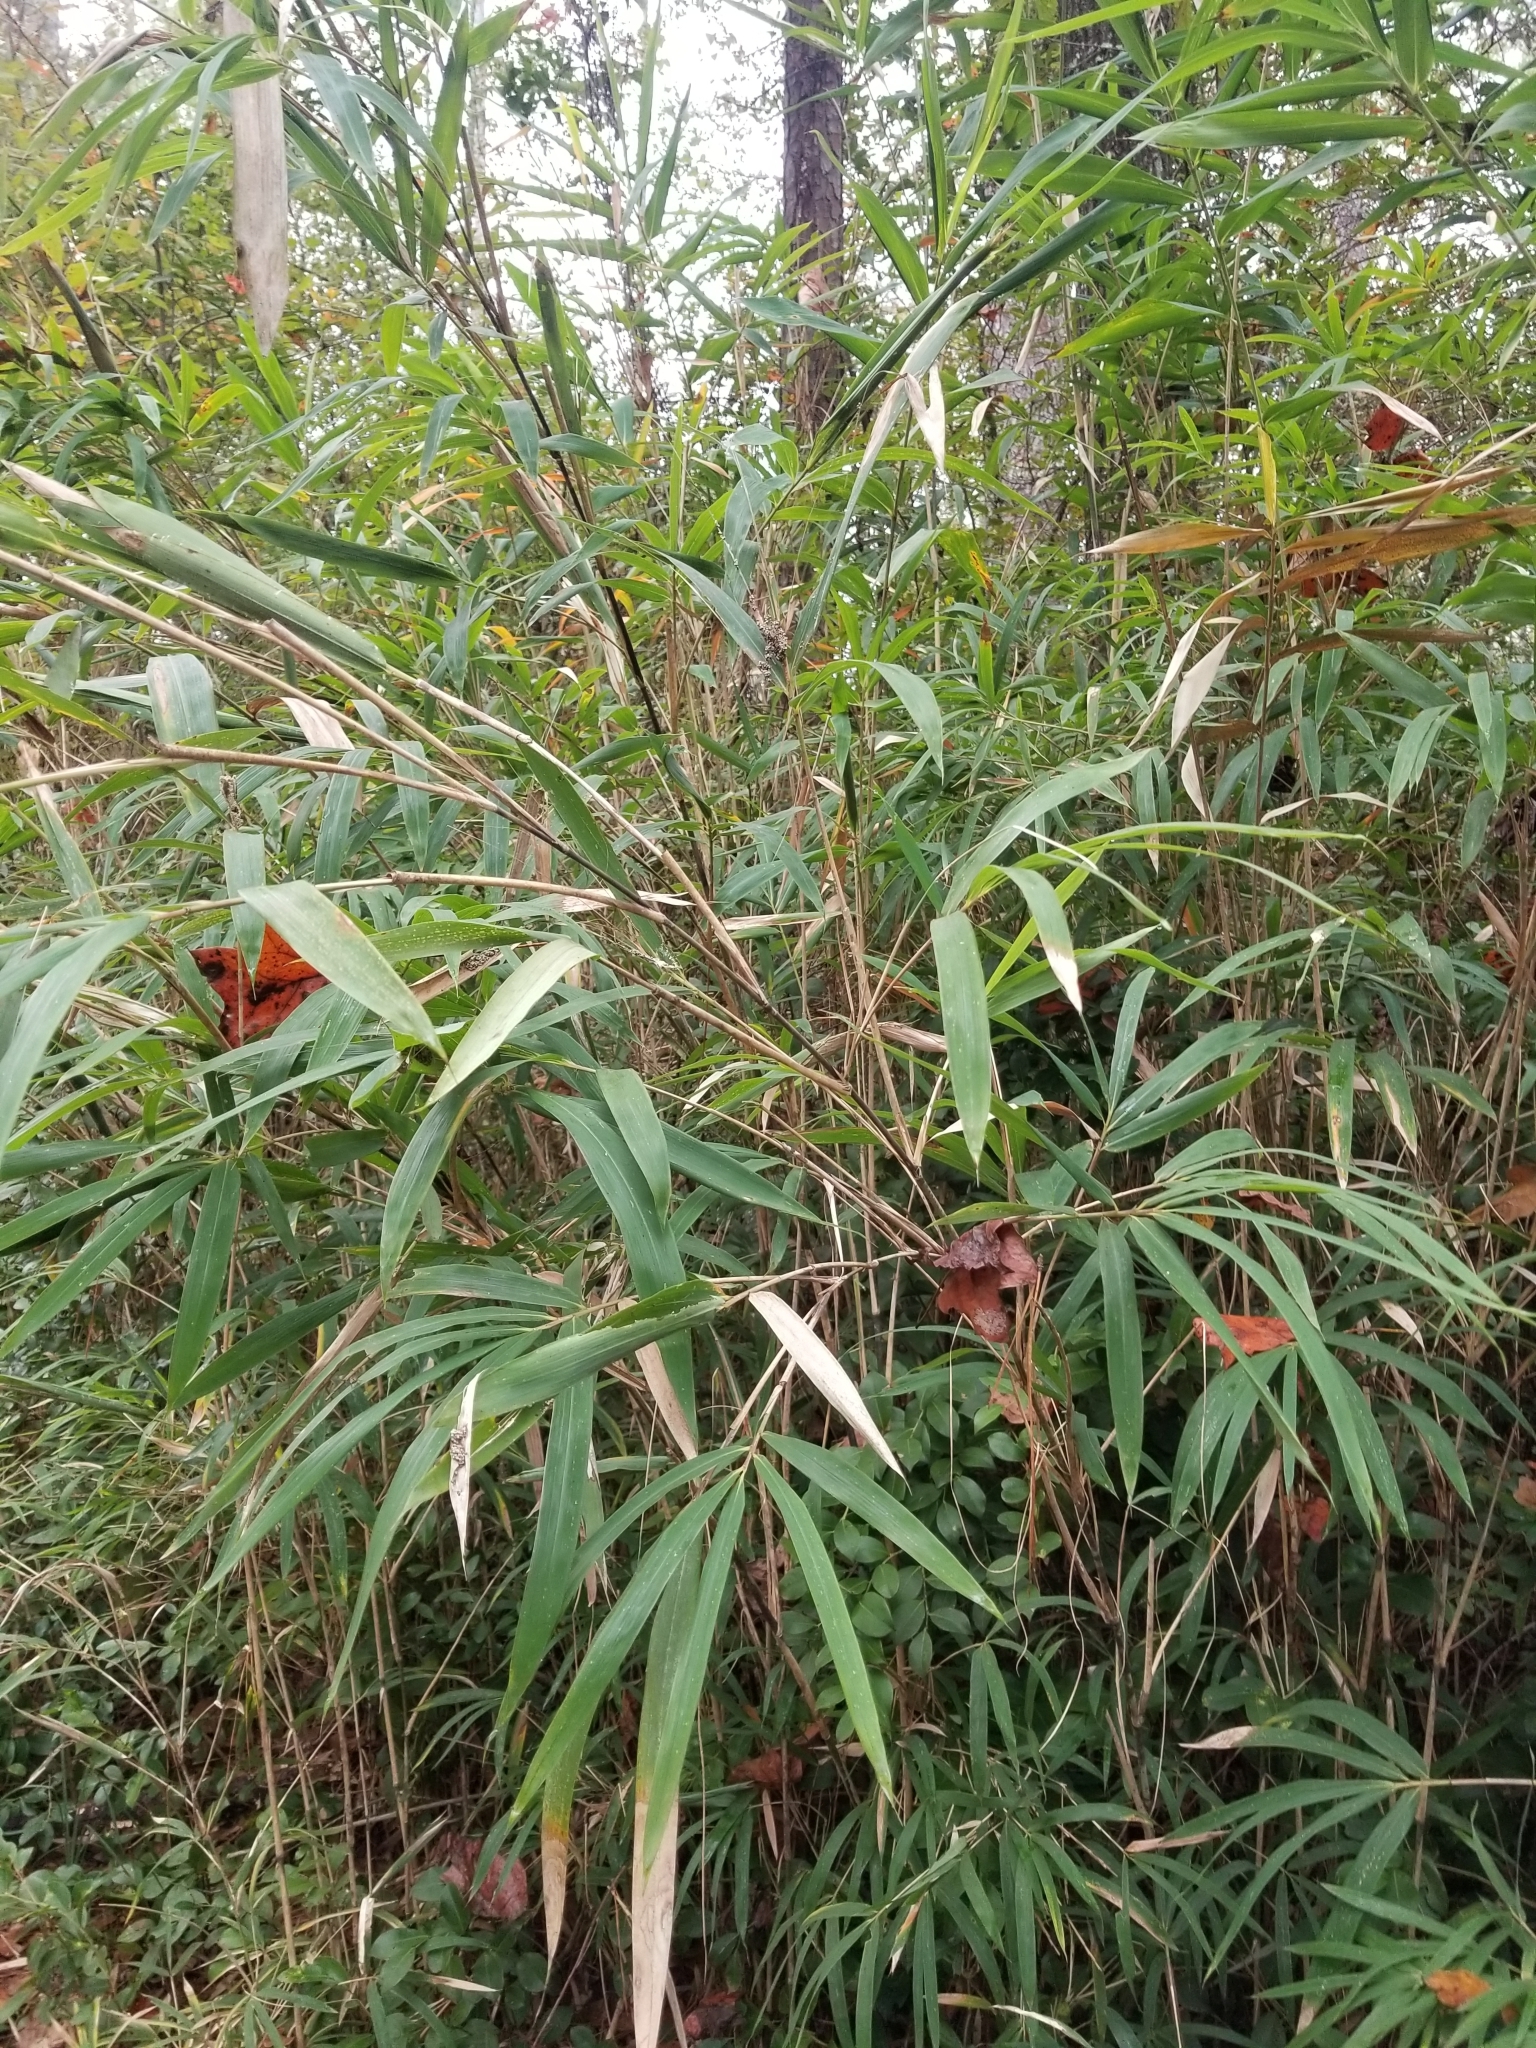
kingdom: Plantae
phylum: Tracheophyta
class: Liliopsida
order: Poales
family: Poaceae
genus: Arundinaria
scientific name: Arundinaria gigantea
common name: Giant cane
